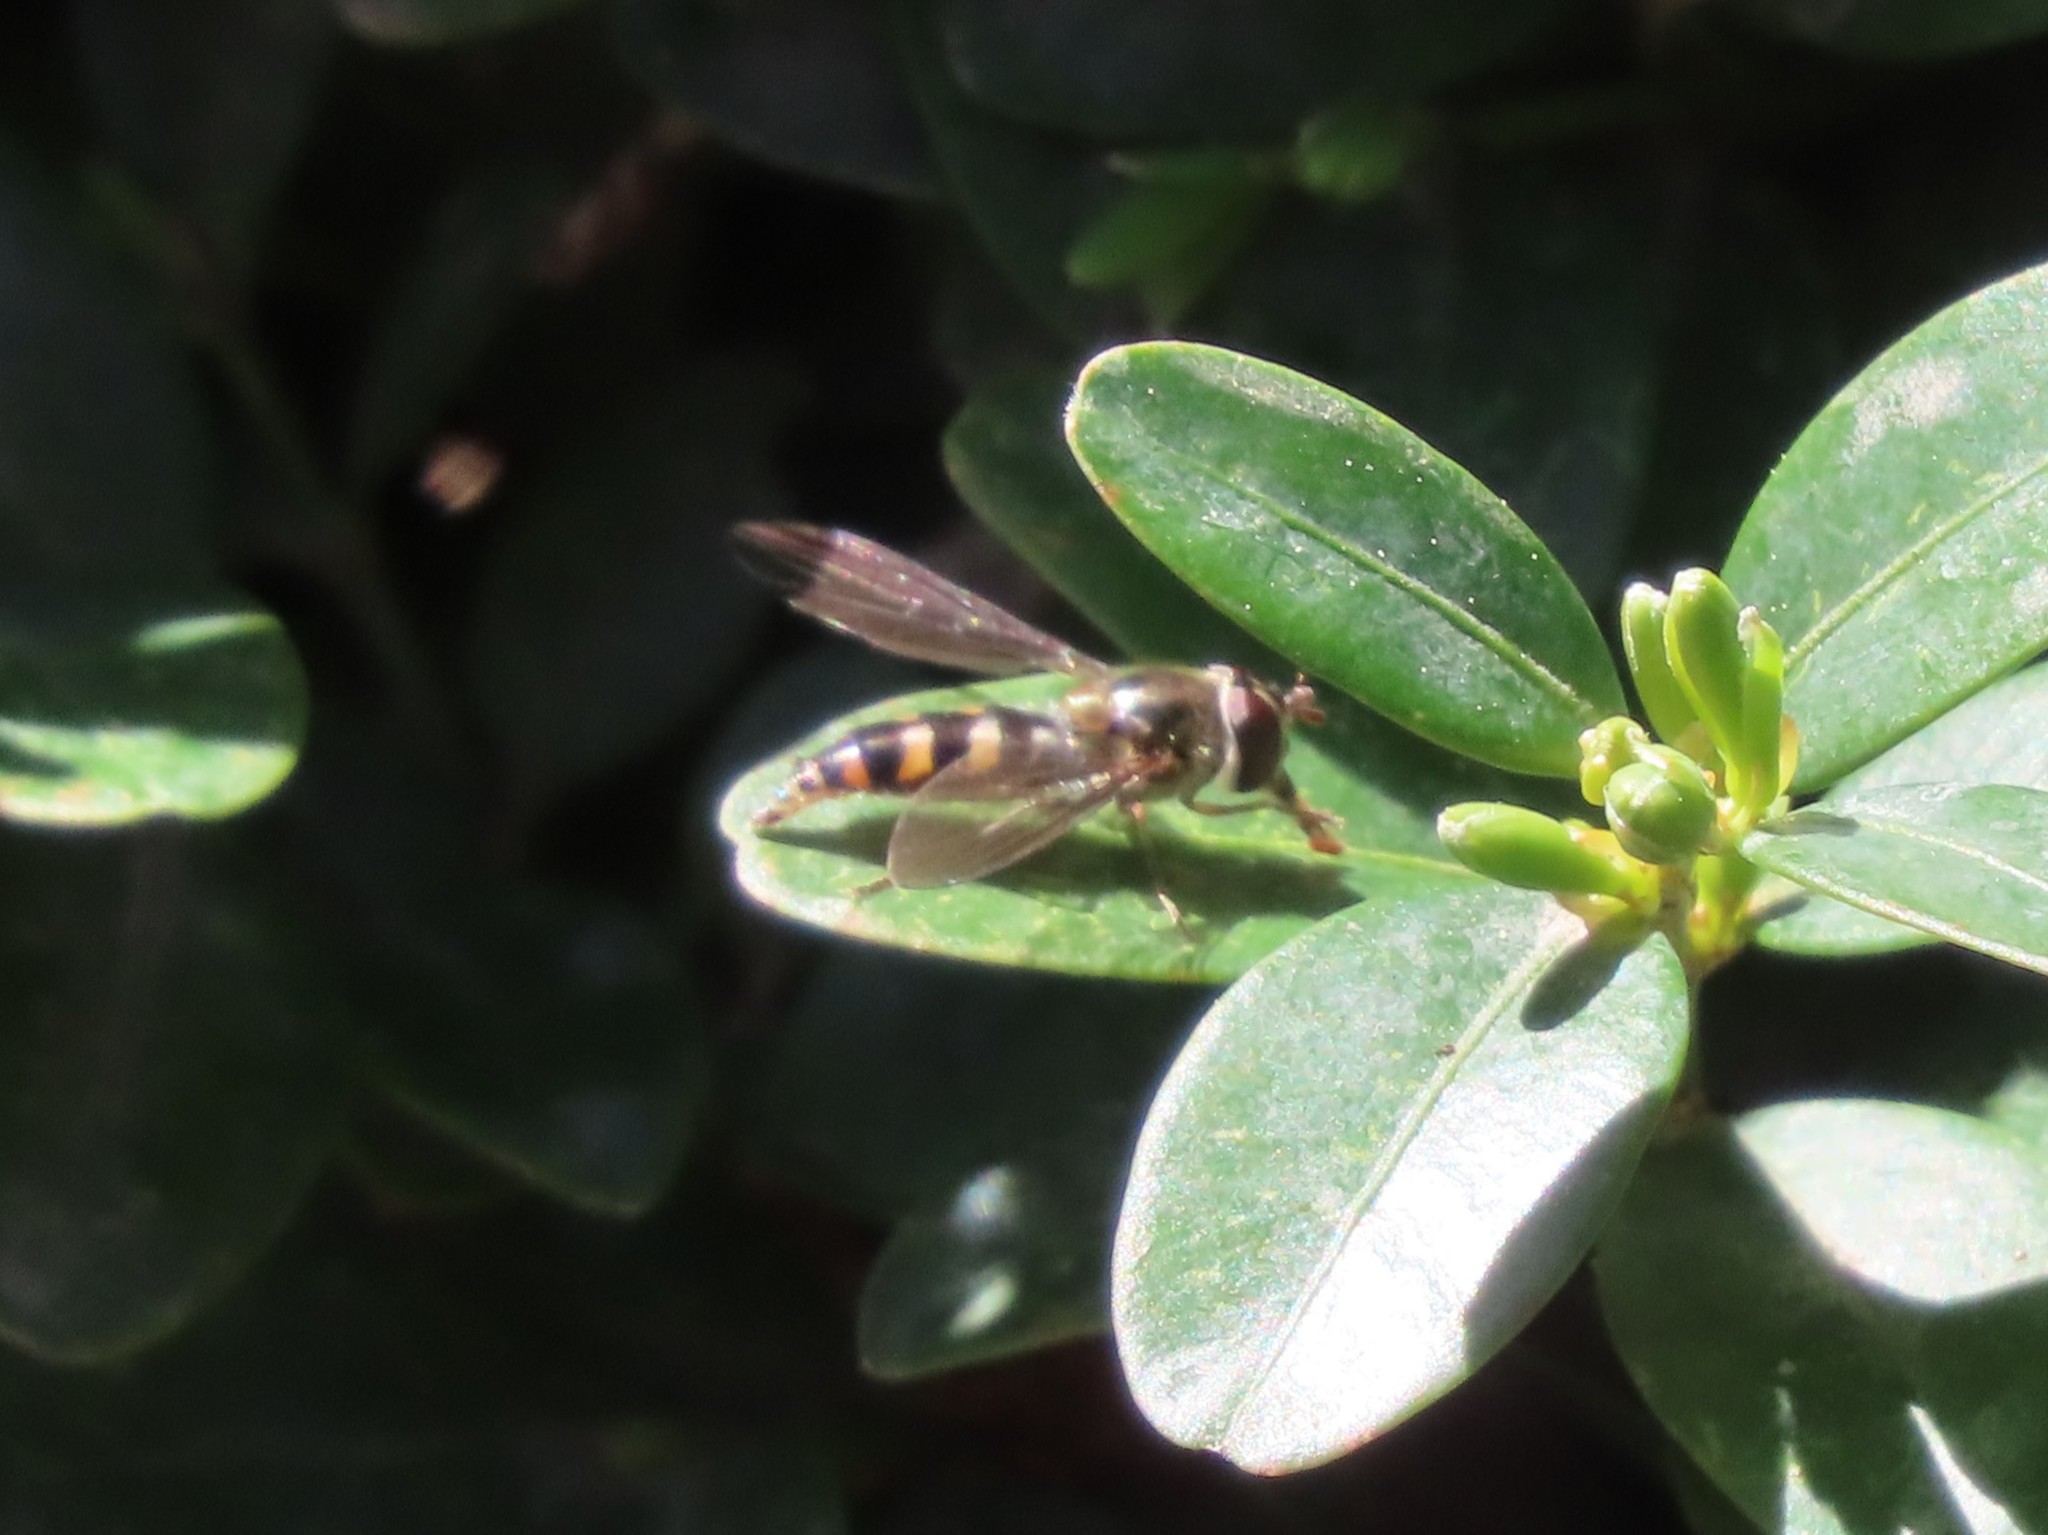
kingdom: Animalia
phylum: Arthropoda
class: Insecta
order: Diptera
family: Syrphidae
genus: Meliscaeva
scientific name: Meliscaeva auricollis
